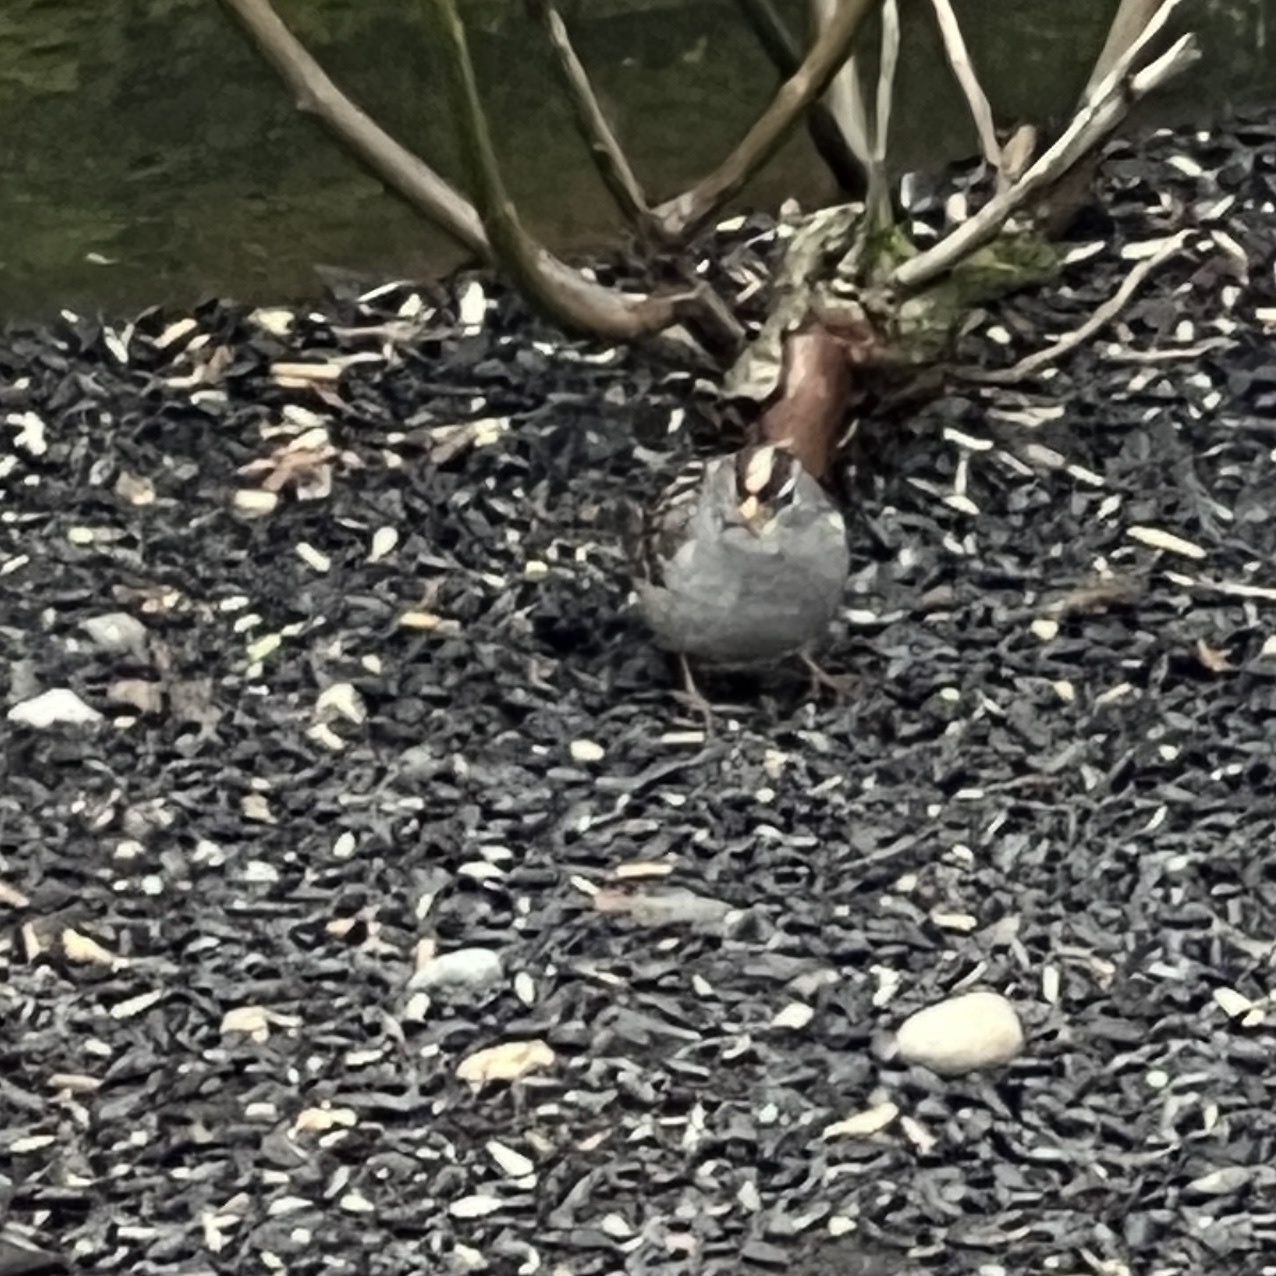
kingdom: Animalia
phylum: Chordata
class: Aves
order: Passeriformes
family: Passerellidae
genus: Zonotrichia
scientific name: Zonotrichia leucophrys
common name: White-crowned sparrow
